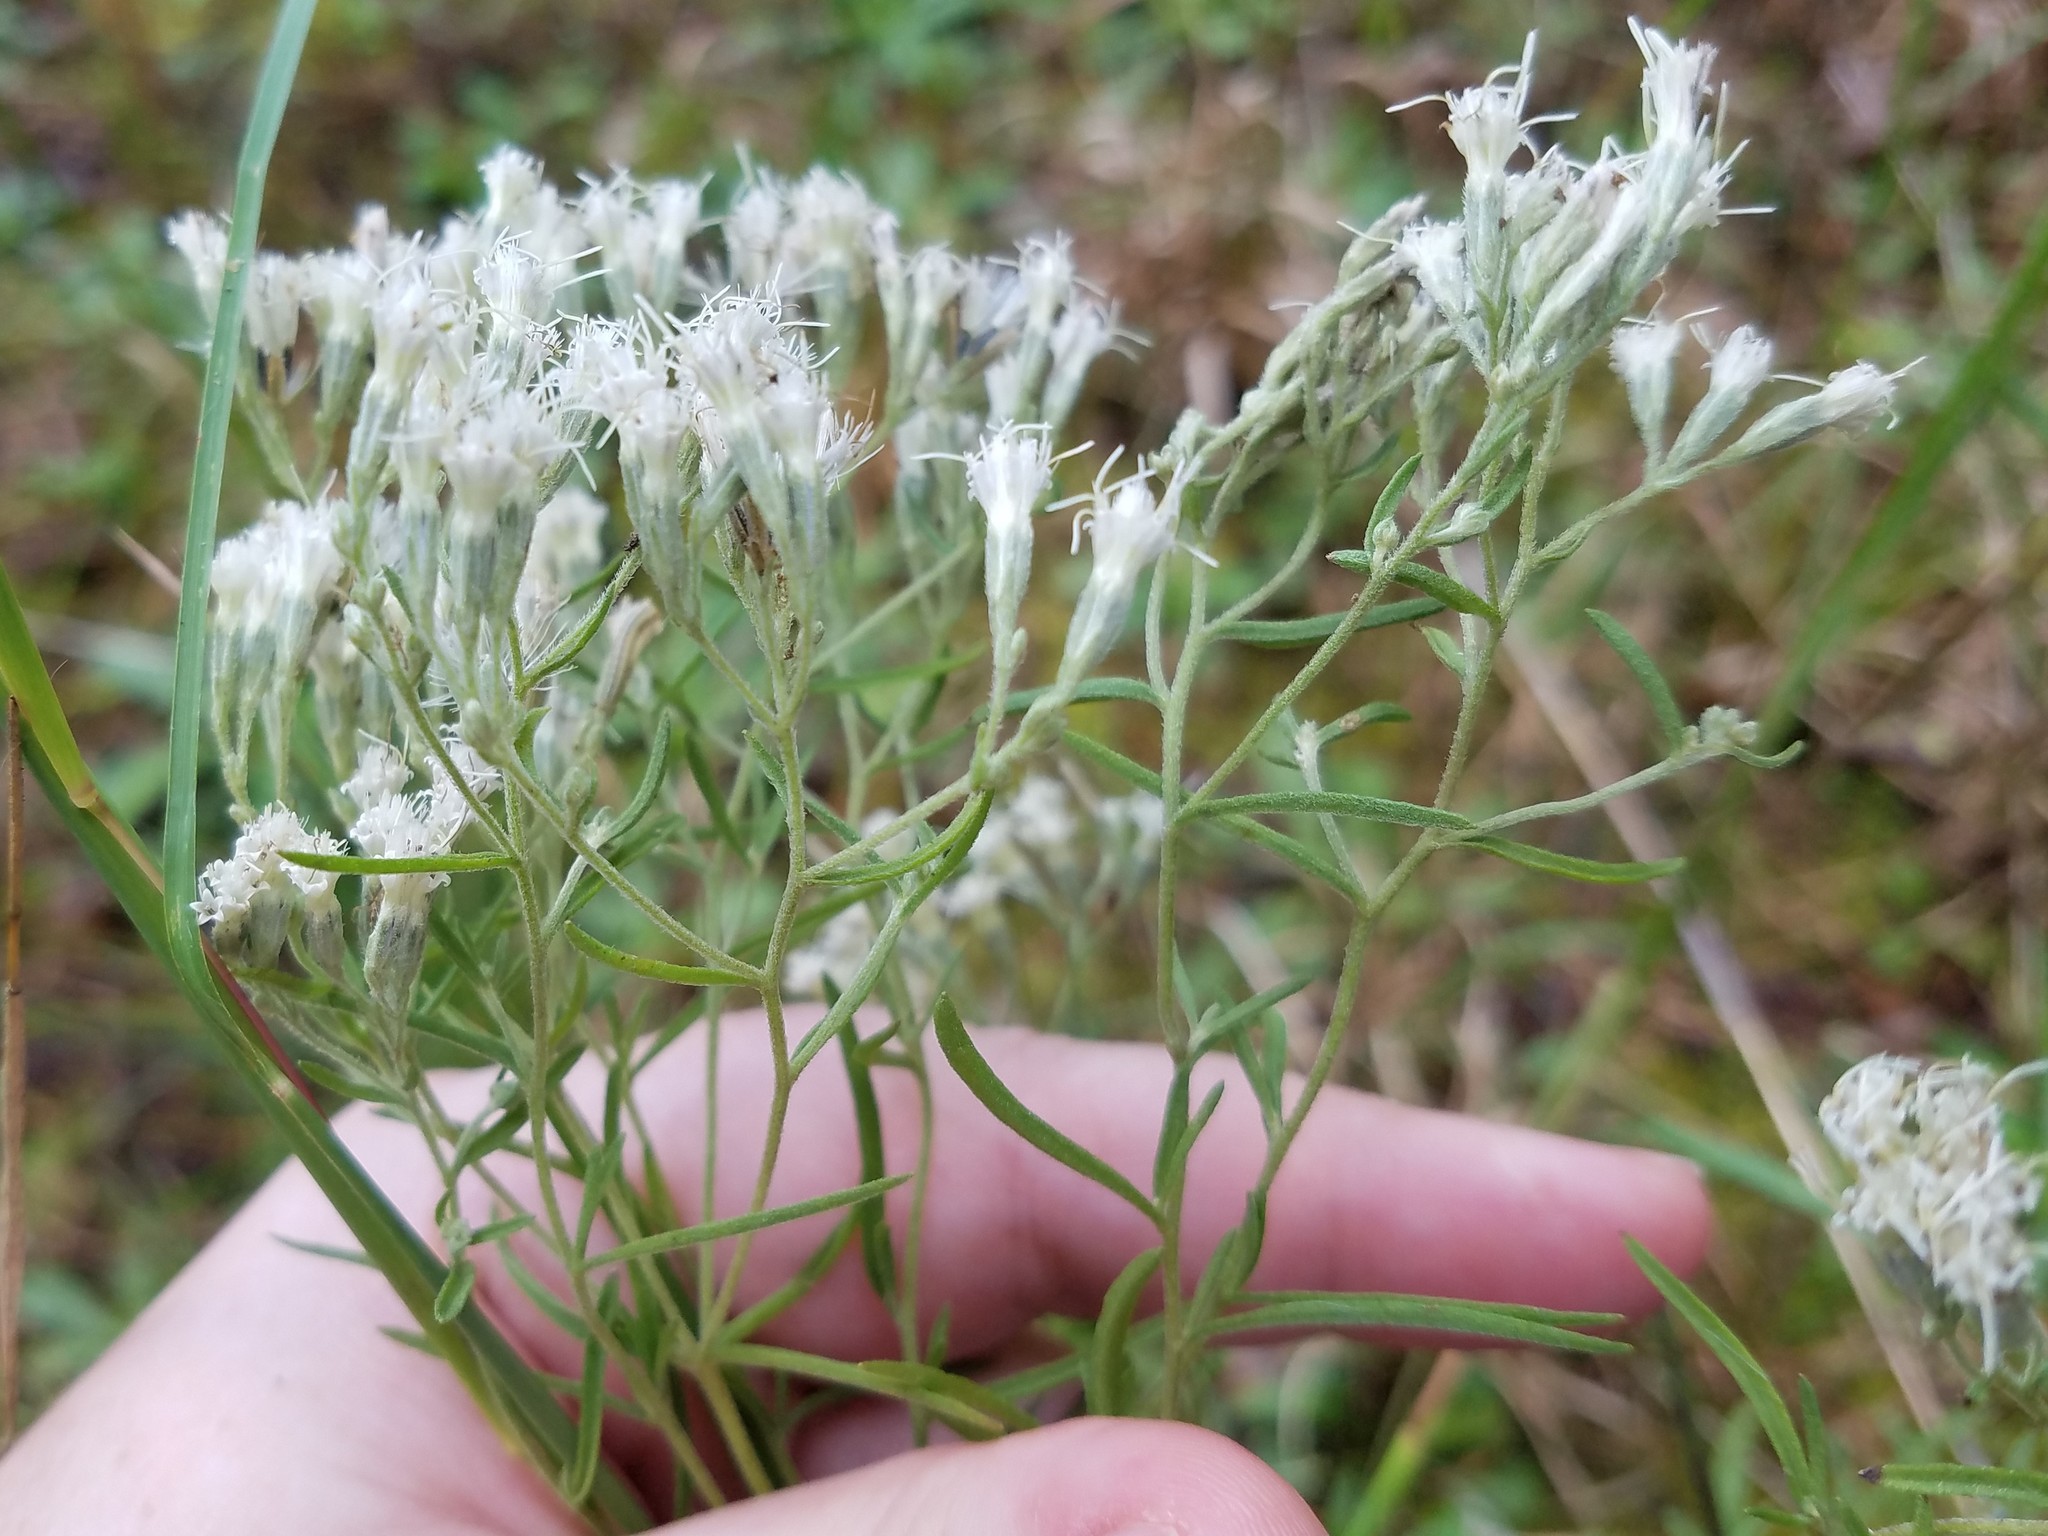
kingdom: Plantae
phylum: Tracheophyta
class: Magnoliopsida
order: Asterales
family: Asteraceae
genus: Eupatorium
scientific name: Eupatorium hyssopifolium
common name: Hyssop-leaf thoroughwort
